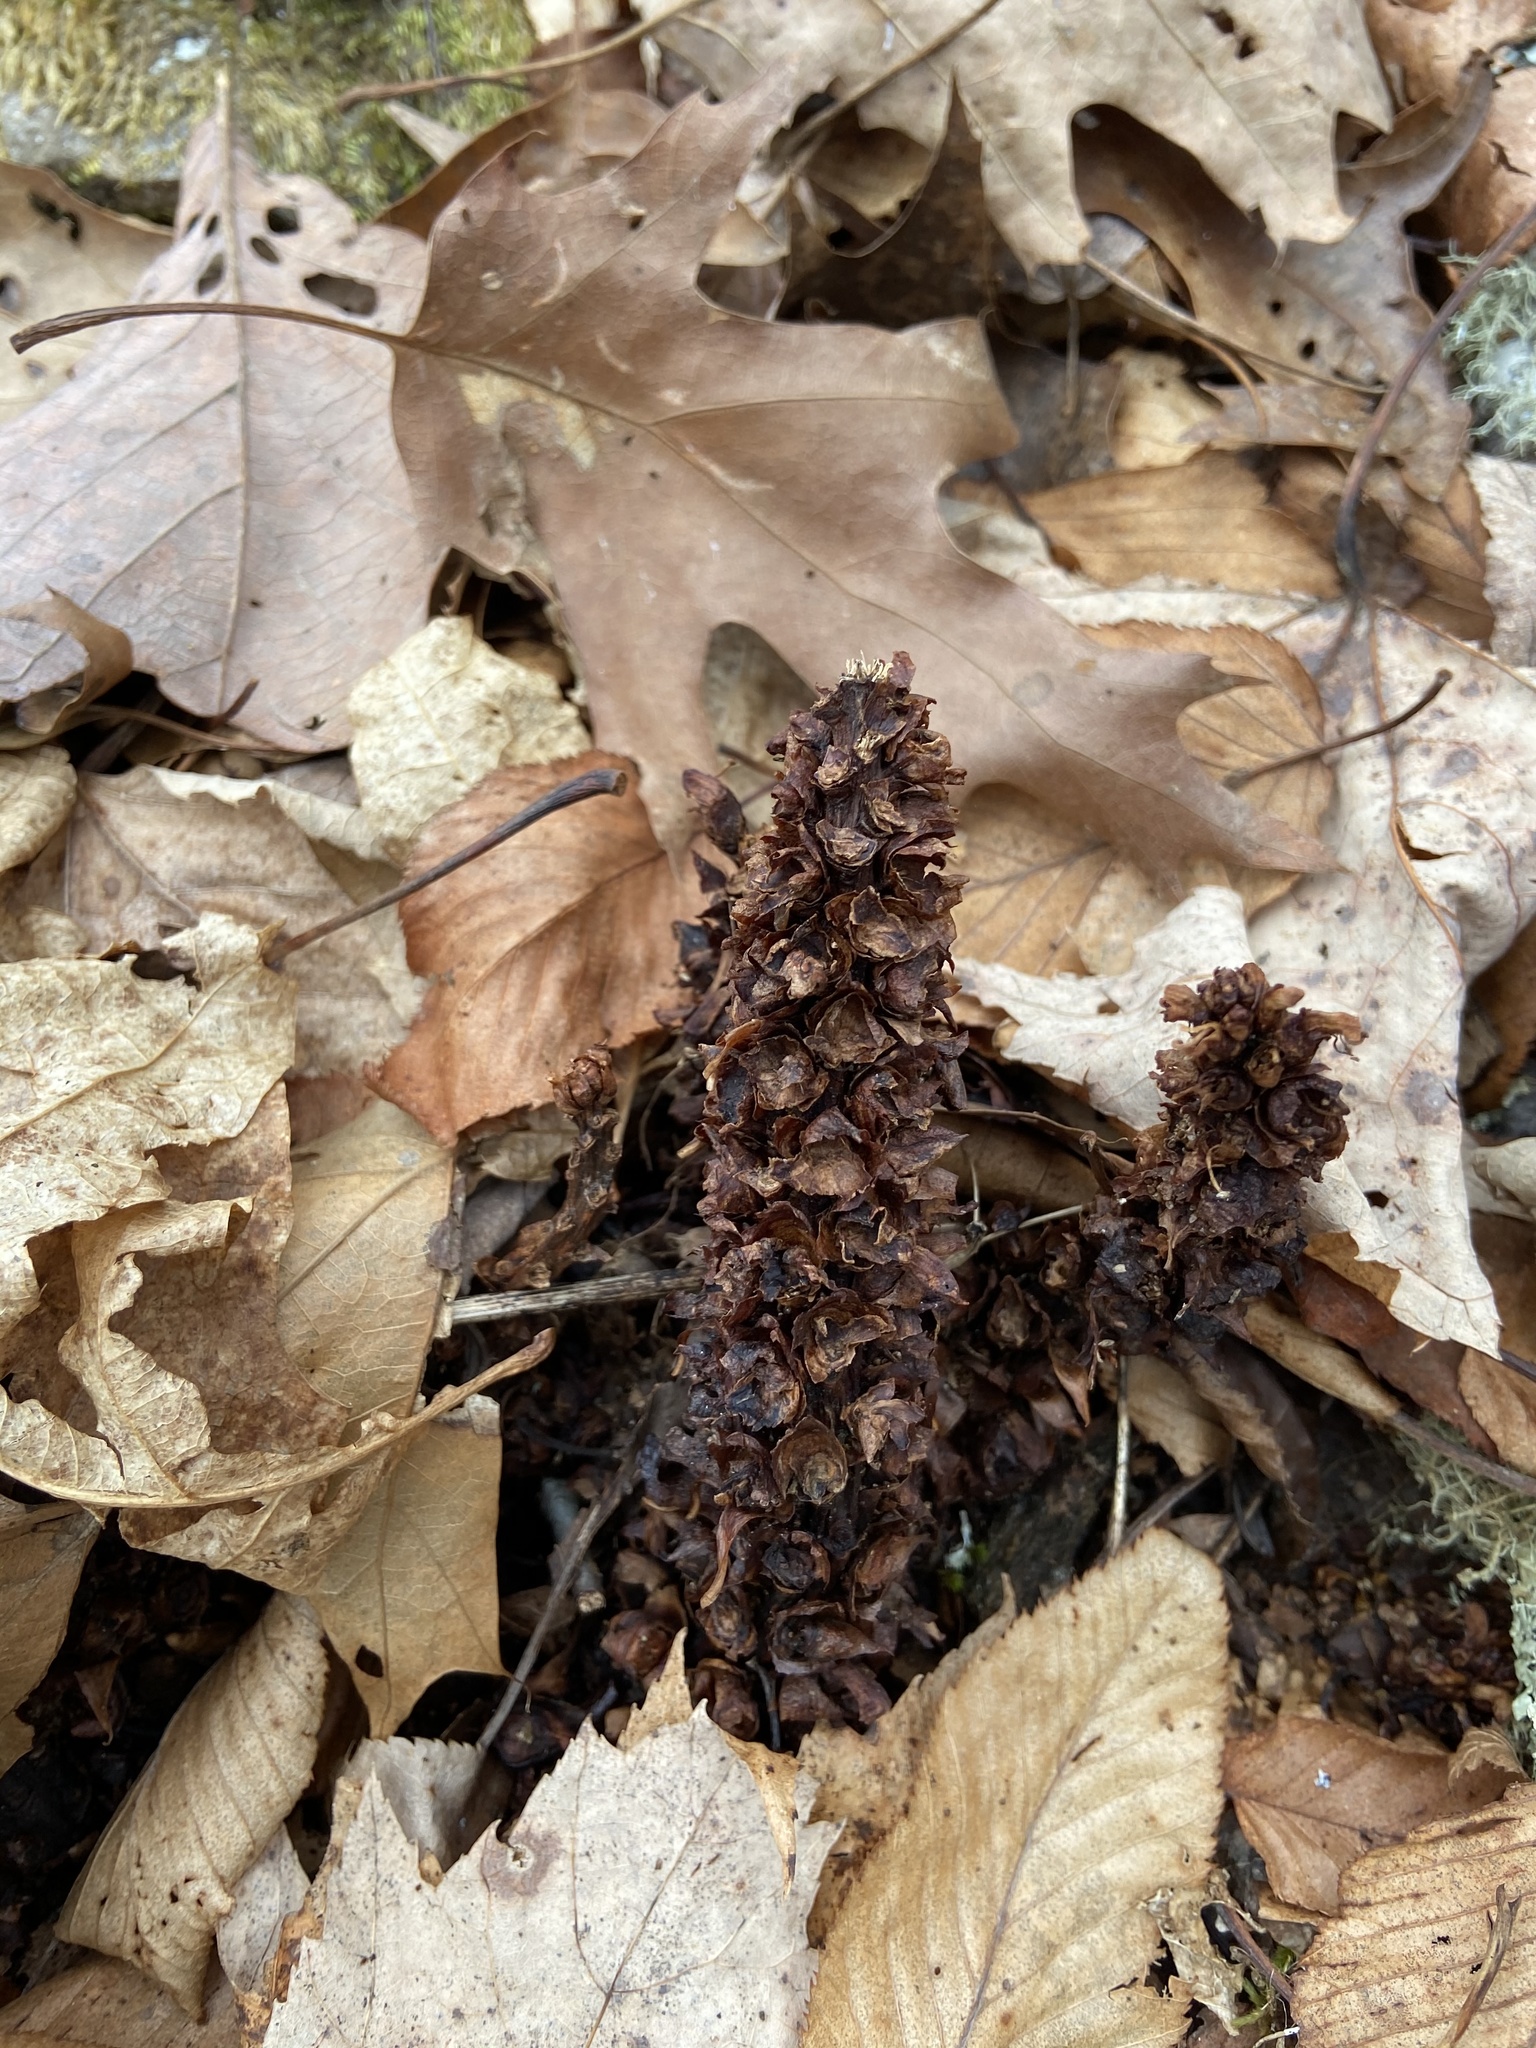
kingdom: Plantae
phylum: Tracheophyta
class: Magnoliopsida
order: Lamiales
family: Orobanchaceae
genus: Conopholis
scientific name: Conopholis americana
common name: American cancer-root
